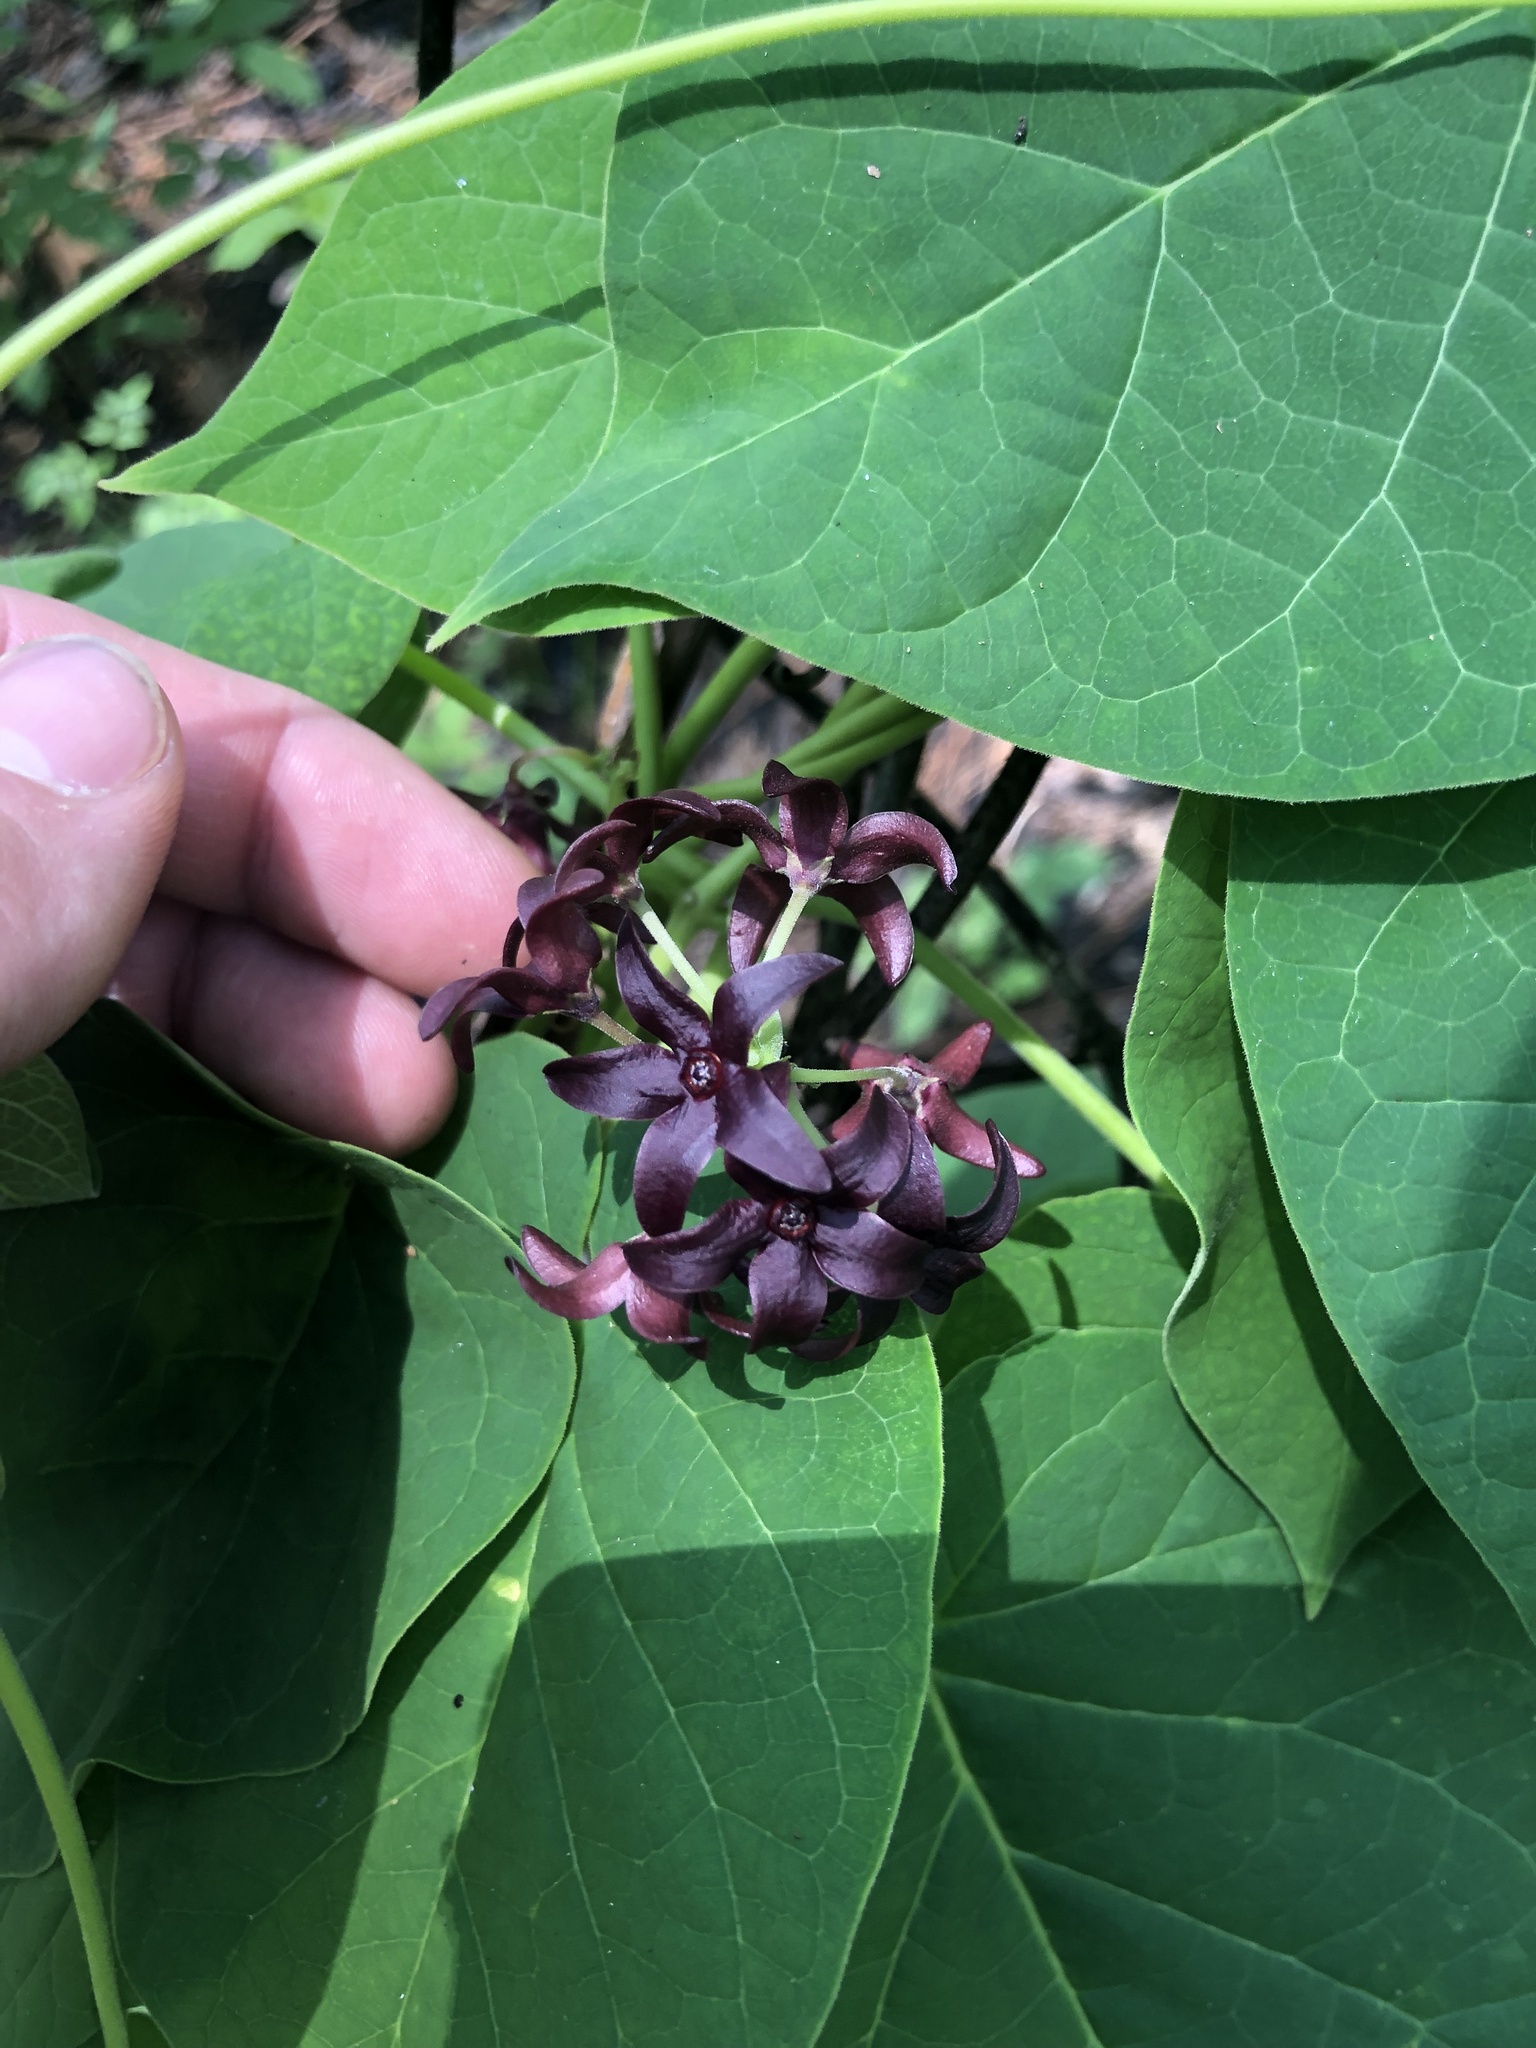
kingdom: Plantae
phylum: Tracheophyta
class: Magnoliopsida
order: Gentianales
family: Apocynaceae
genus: Matelea
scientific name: Matelea carolinensis
